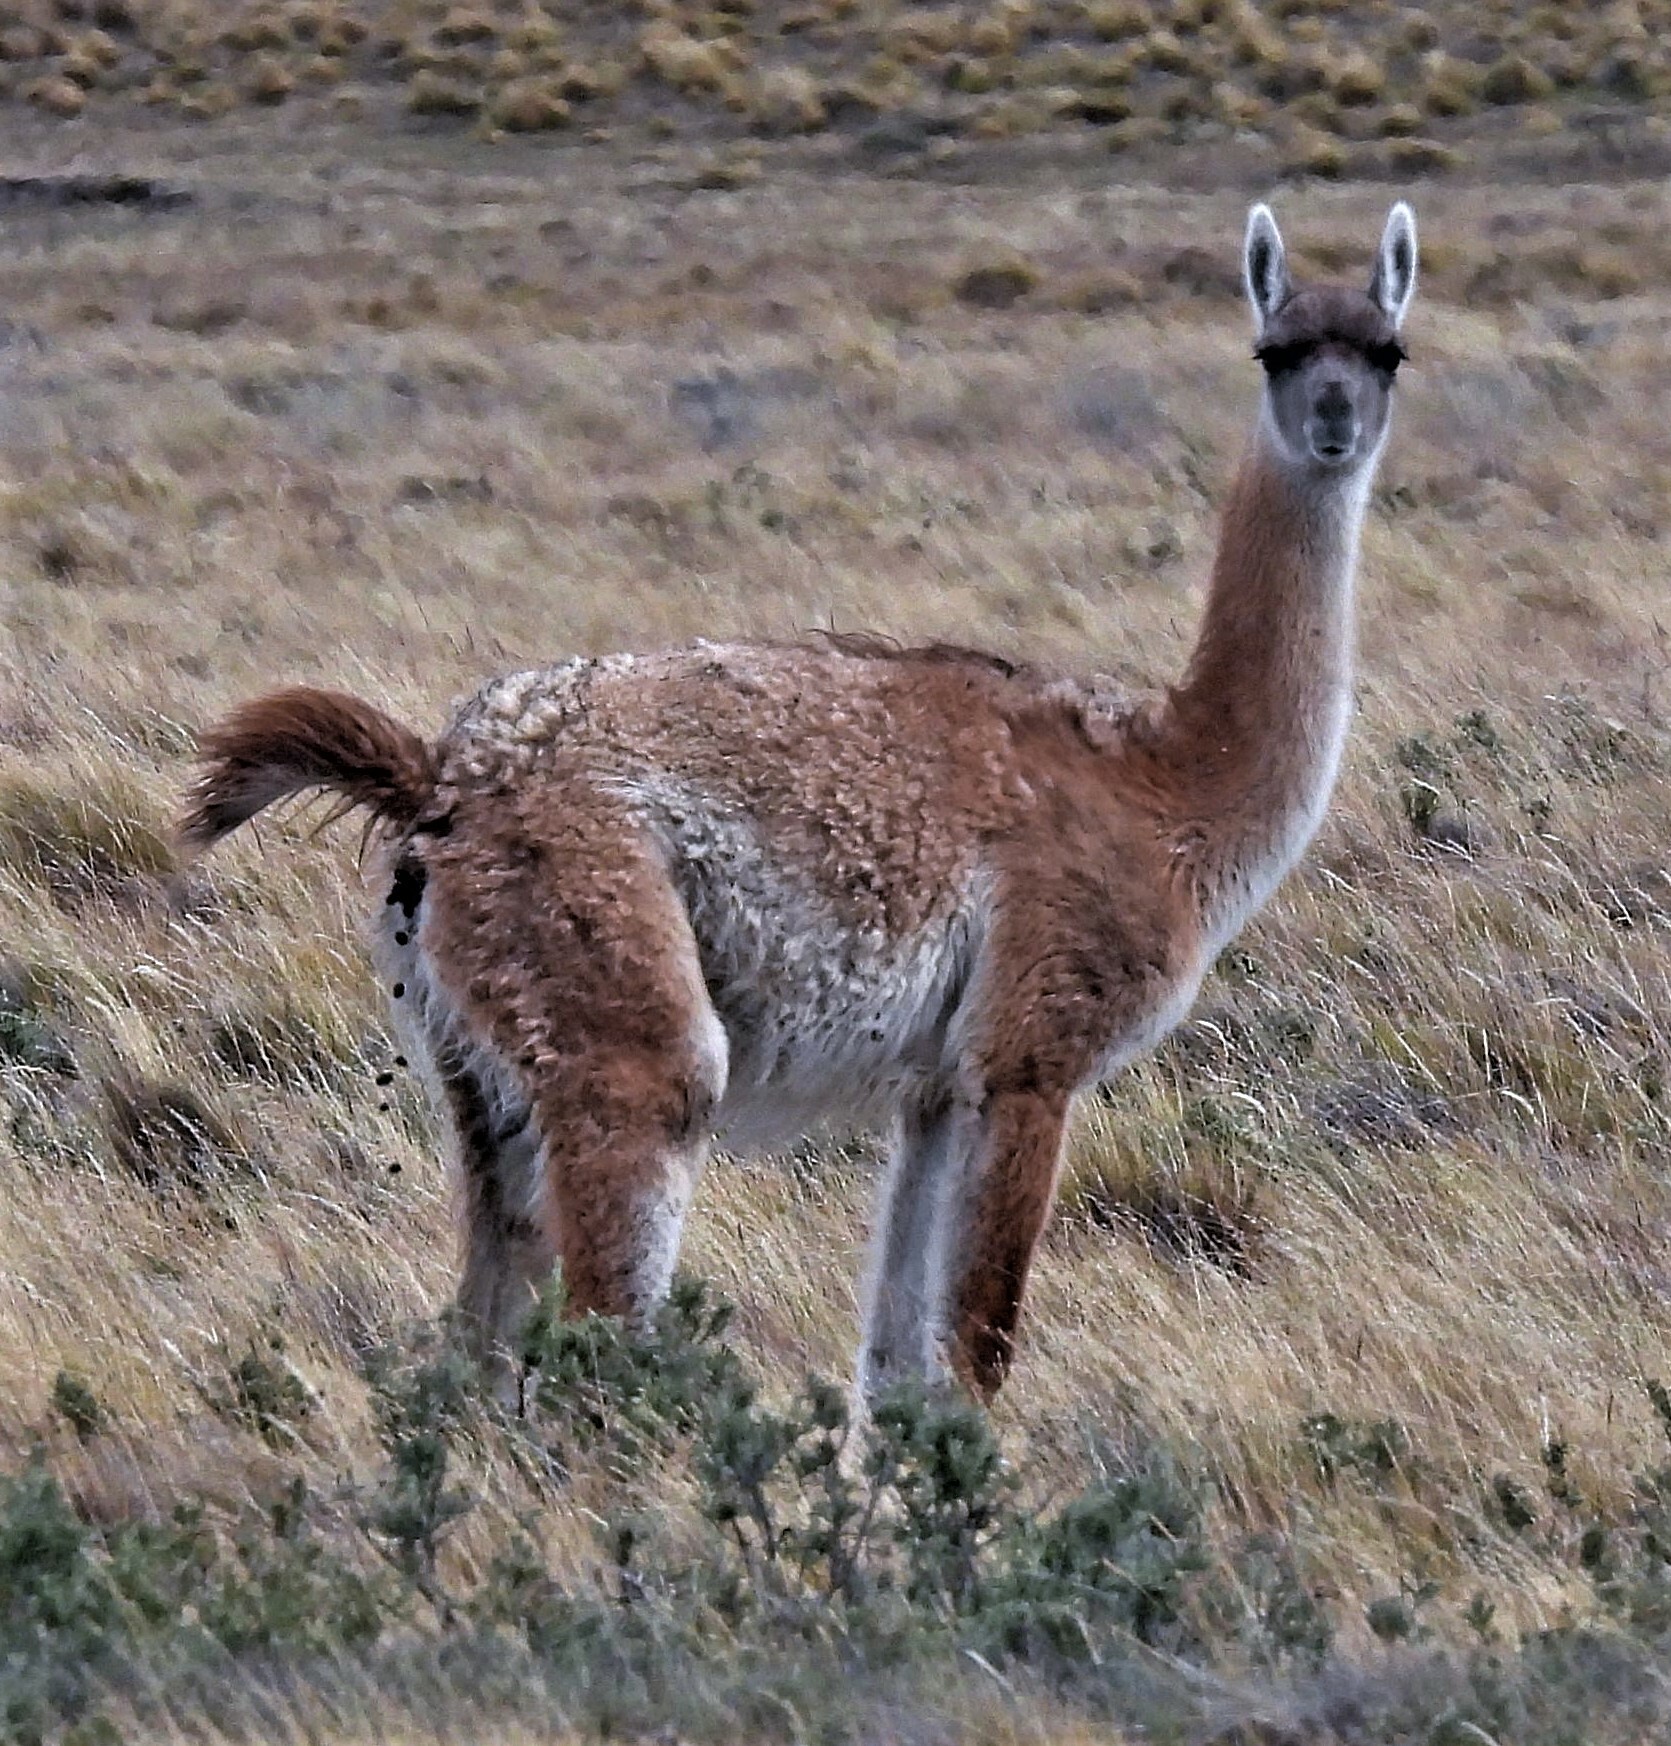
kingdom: Animalia
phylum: Chordata
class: Mammalia
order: Artiodactyla
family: Camelidae
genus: Lama
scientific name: Lama glama
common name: Llama
